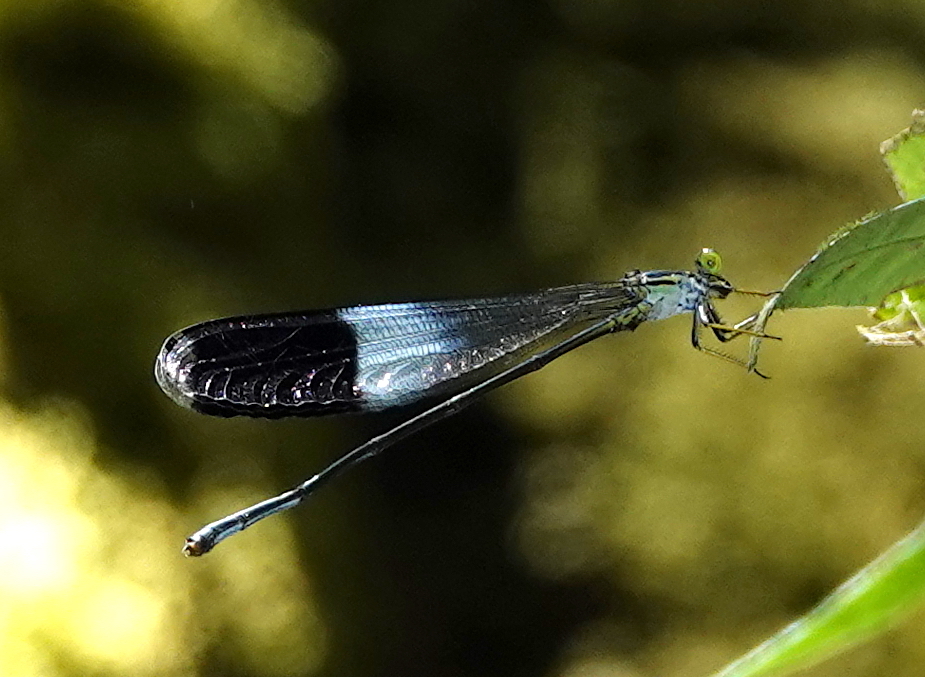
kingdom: Animalia
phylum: Arthropoda
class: Insecta
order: Odonata
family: Coenagrionidae
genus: Megaloprepus
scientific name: Megaloprepus caerulatus
